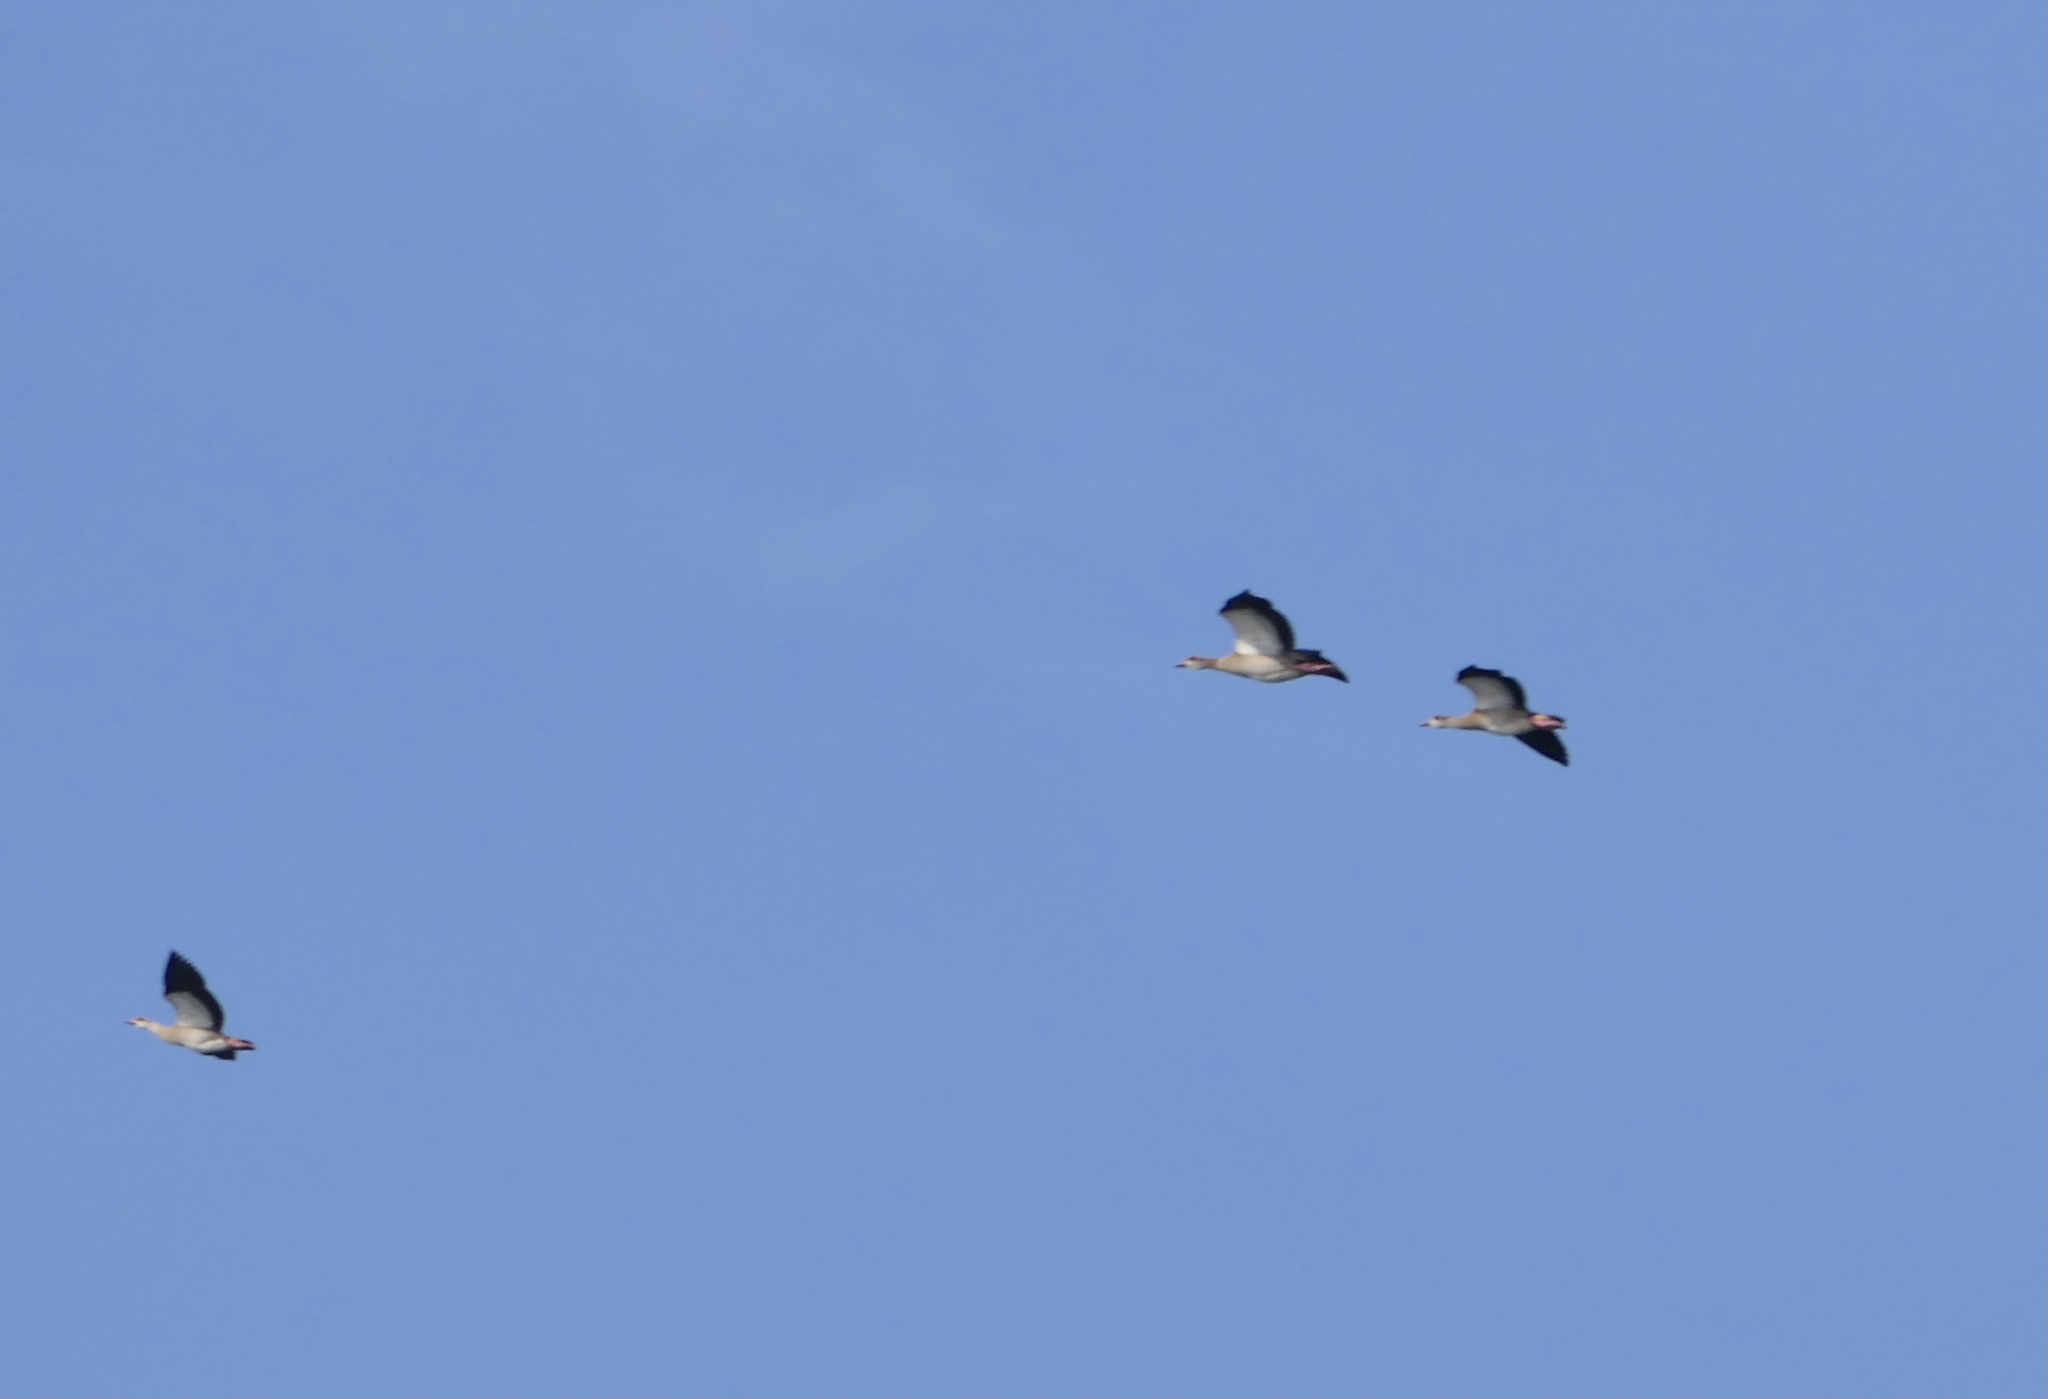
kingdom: Animalia
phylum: Chordata
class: Aves
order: Anseriformes
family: Anatidae
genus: Alopochen
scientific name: Alopochen aegyptiaca
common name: Egyptian goose
